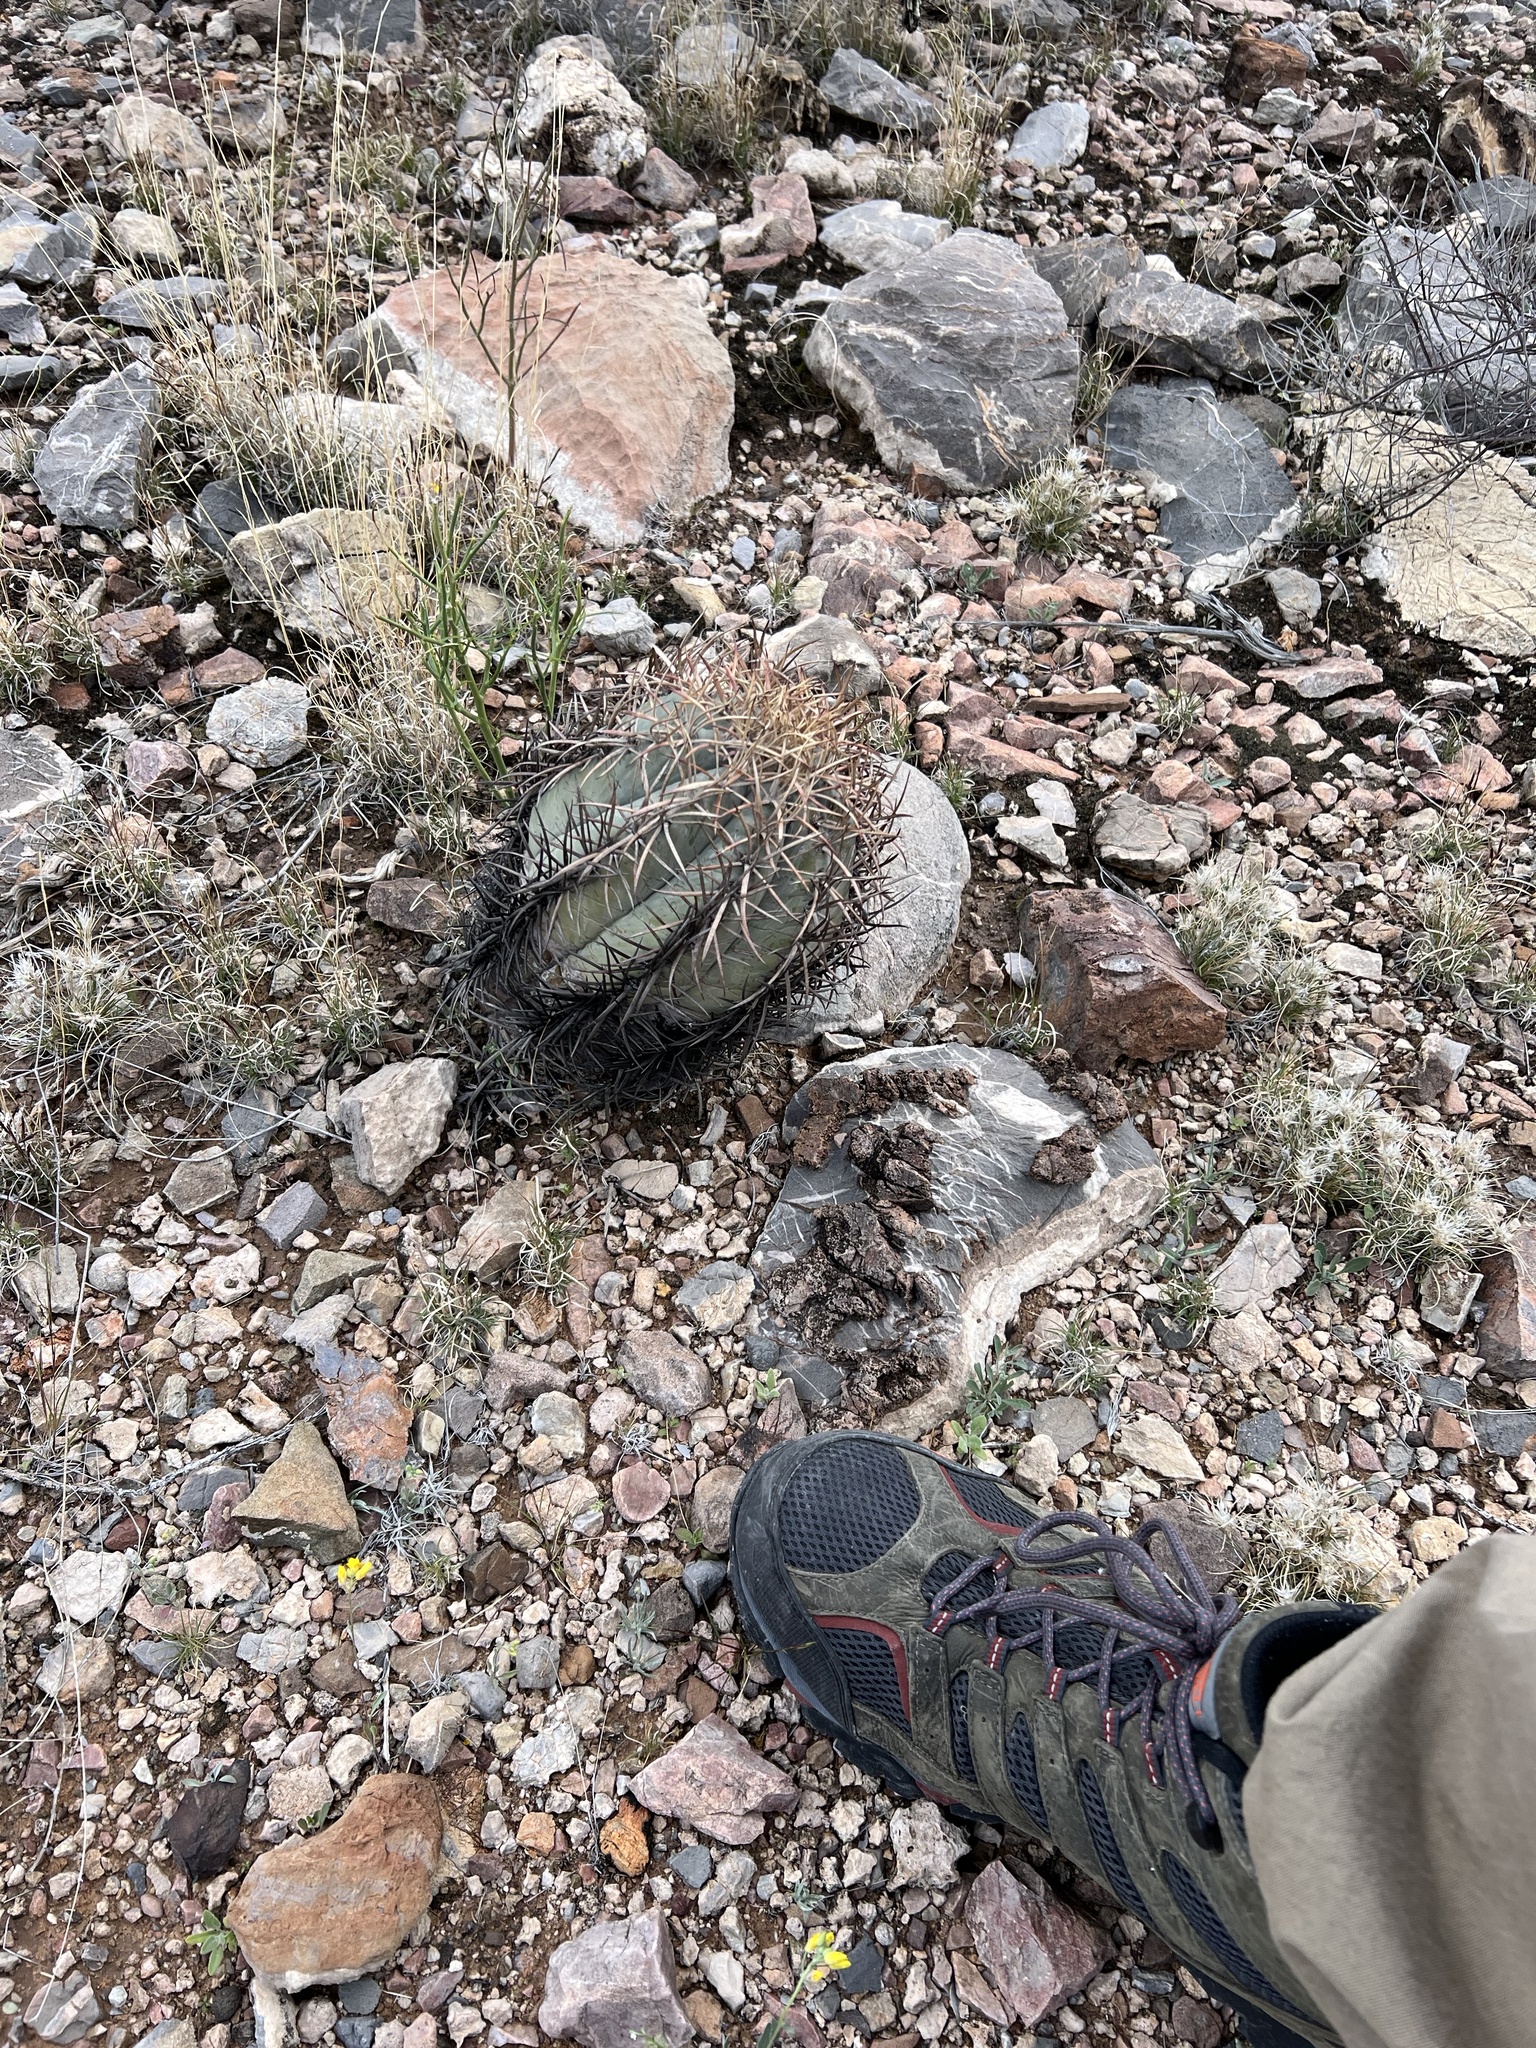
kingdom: Plantae
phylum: Tracheophyta
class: Magnoliopsida
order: Caryophyllales
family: Cactaceae
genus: Echinocactus
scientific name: Echinocactus horizonthalonius
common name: Devilshead
